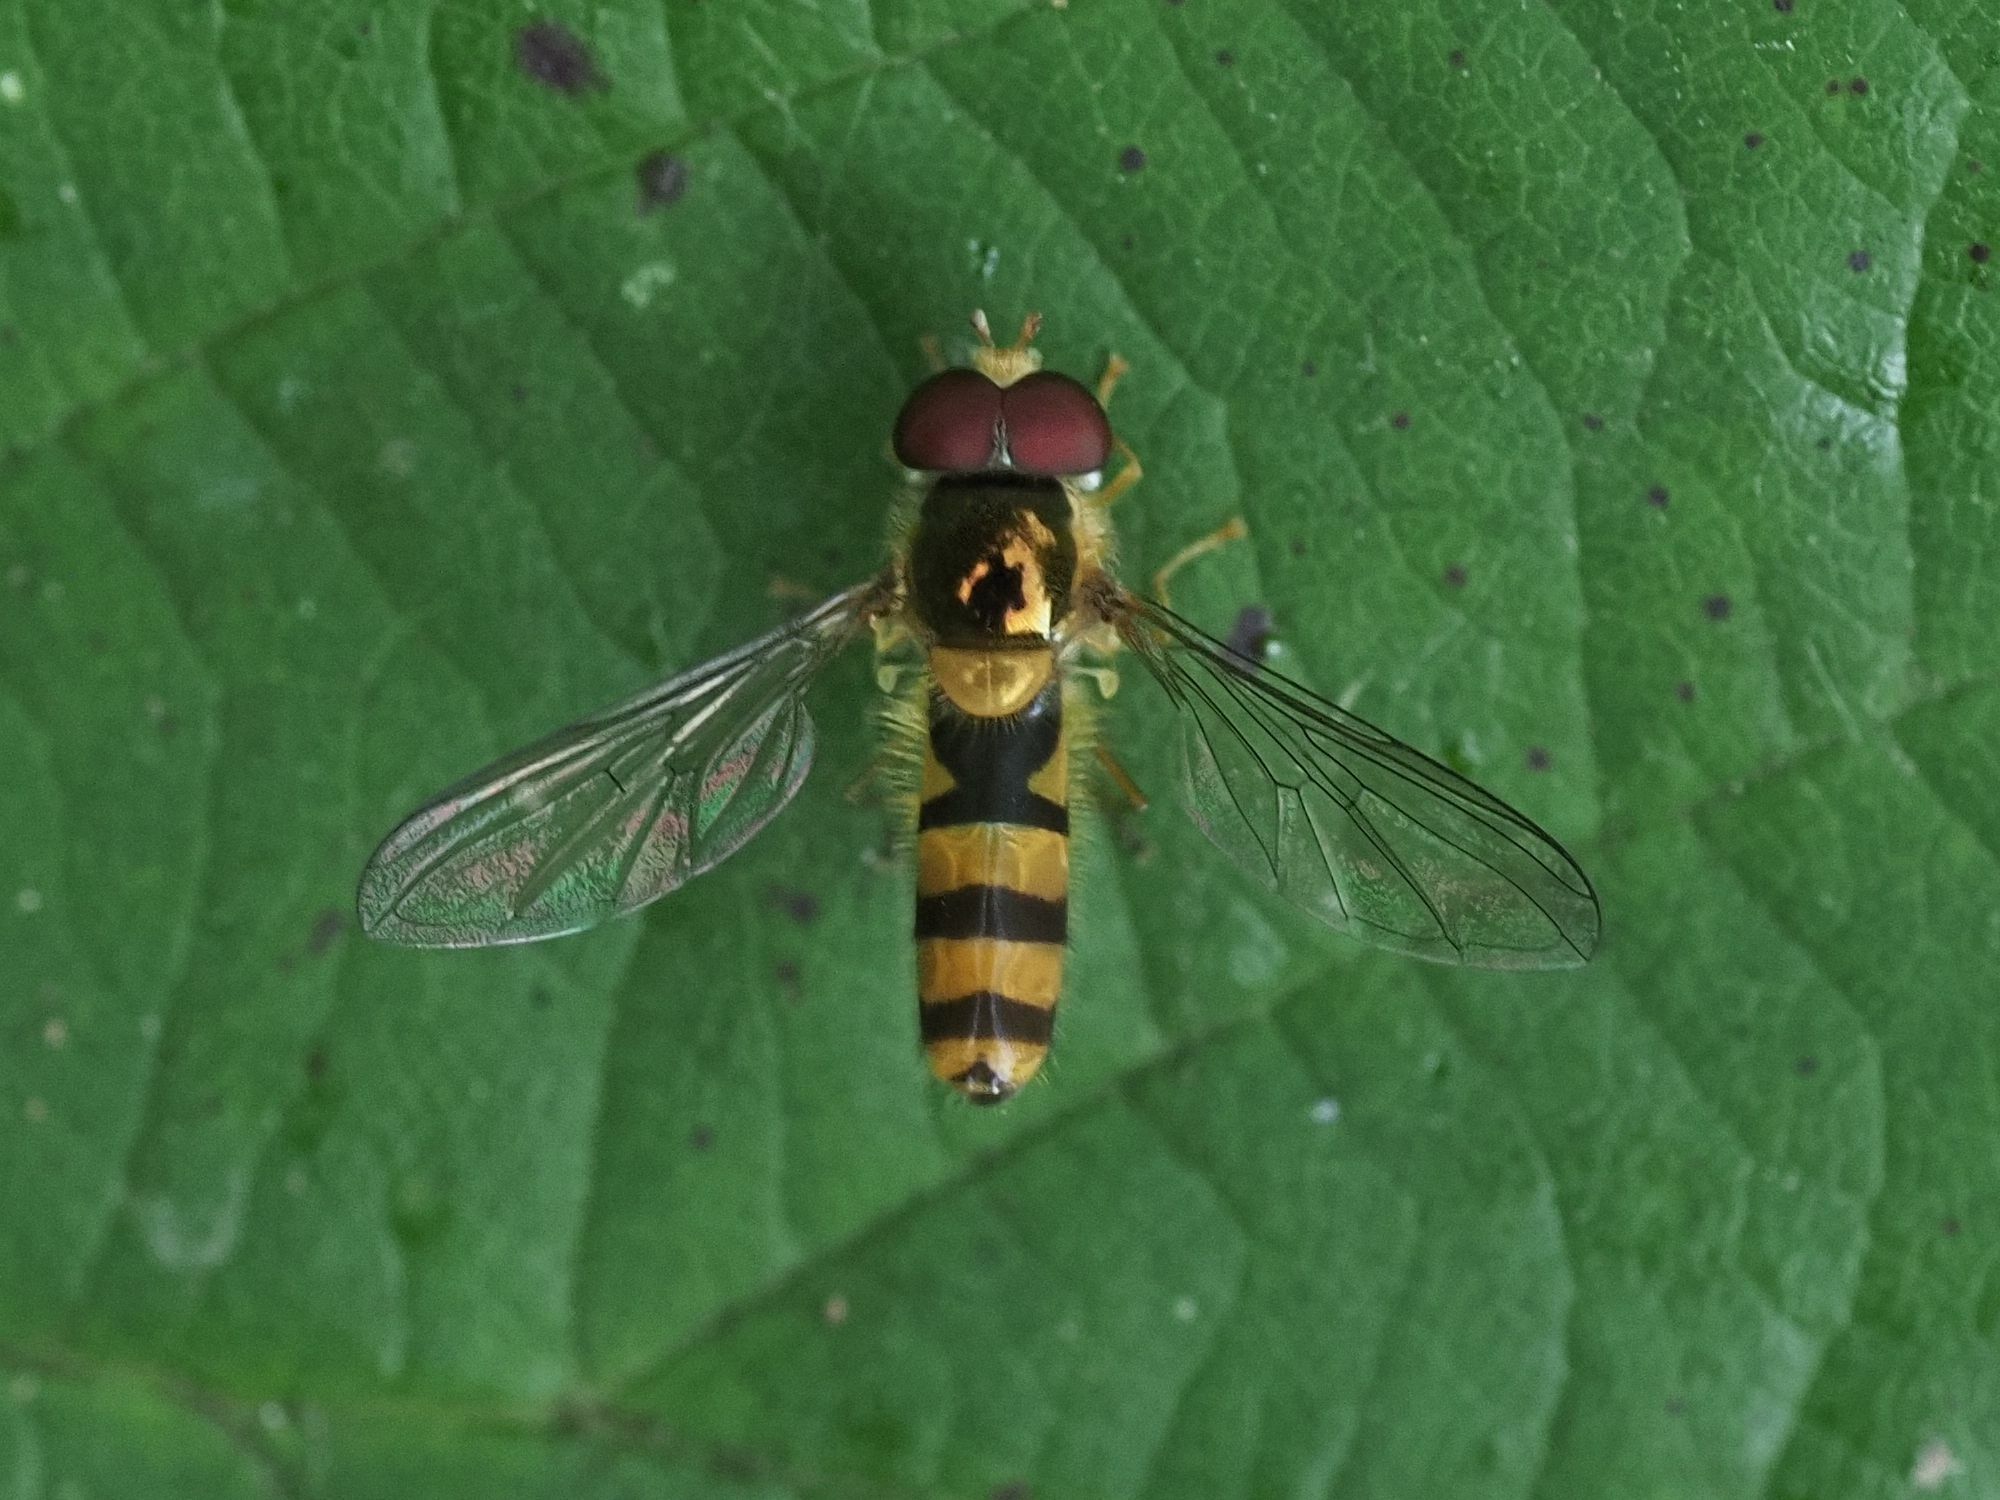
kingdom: Animalia
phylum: Arthropoda
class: Insecta
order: Diptera
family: Syrphidae
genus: Fagisyrphus
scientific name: Fagisyrphus cincta
